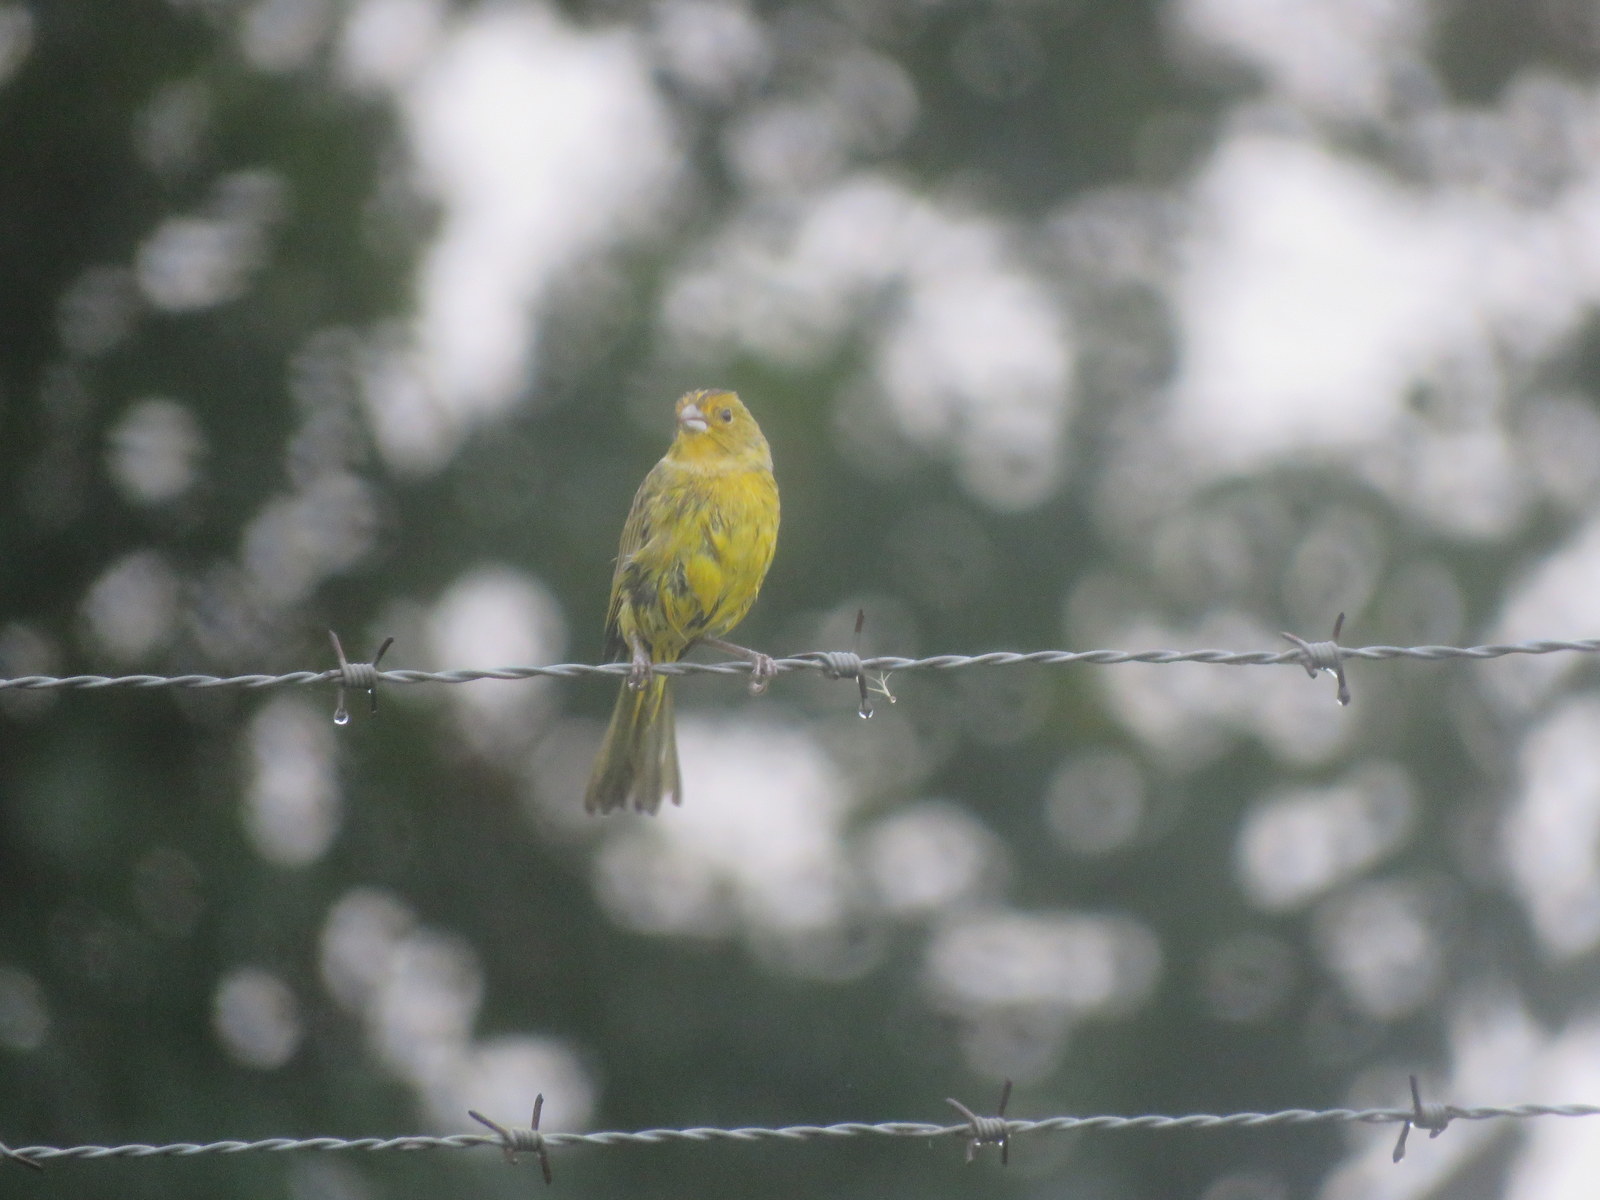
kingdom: Animalia
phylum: Chordata
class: Aves
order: Passeriformes
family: Thraupidae
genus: Sicalis
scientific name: Sicalis flaveola
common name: Saffron finch
